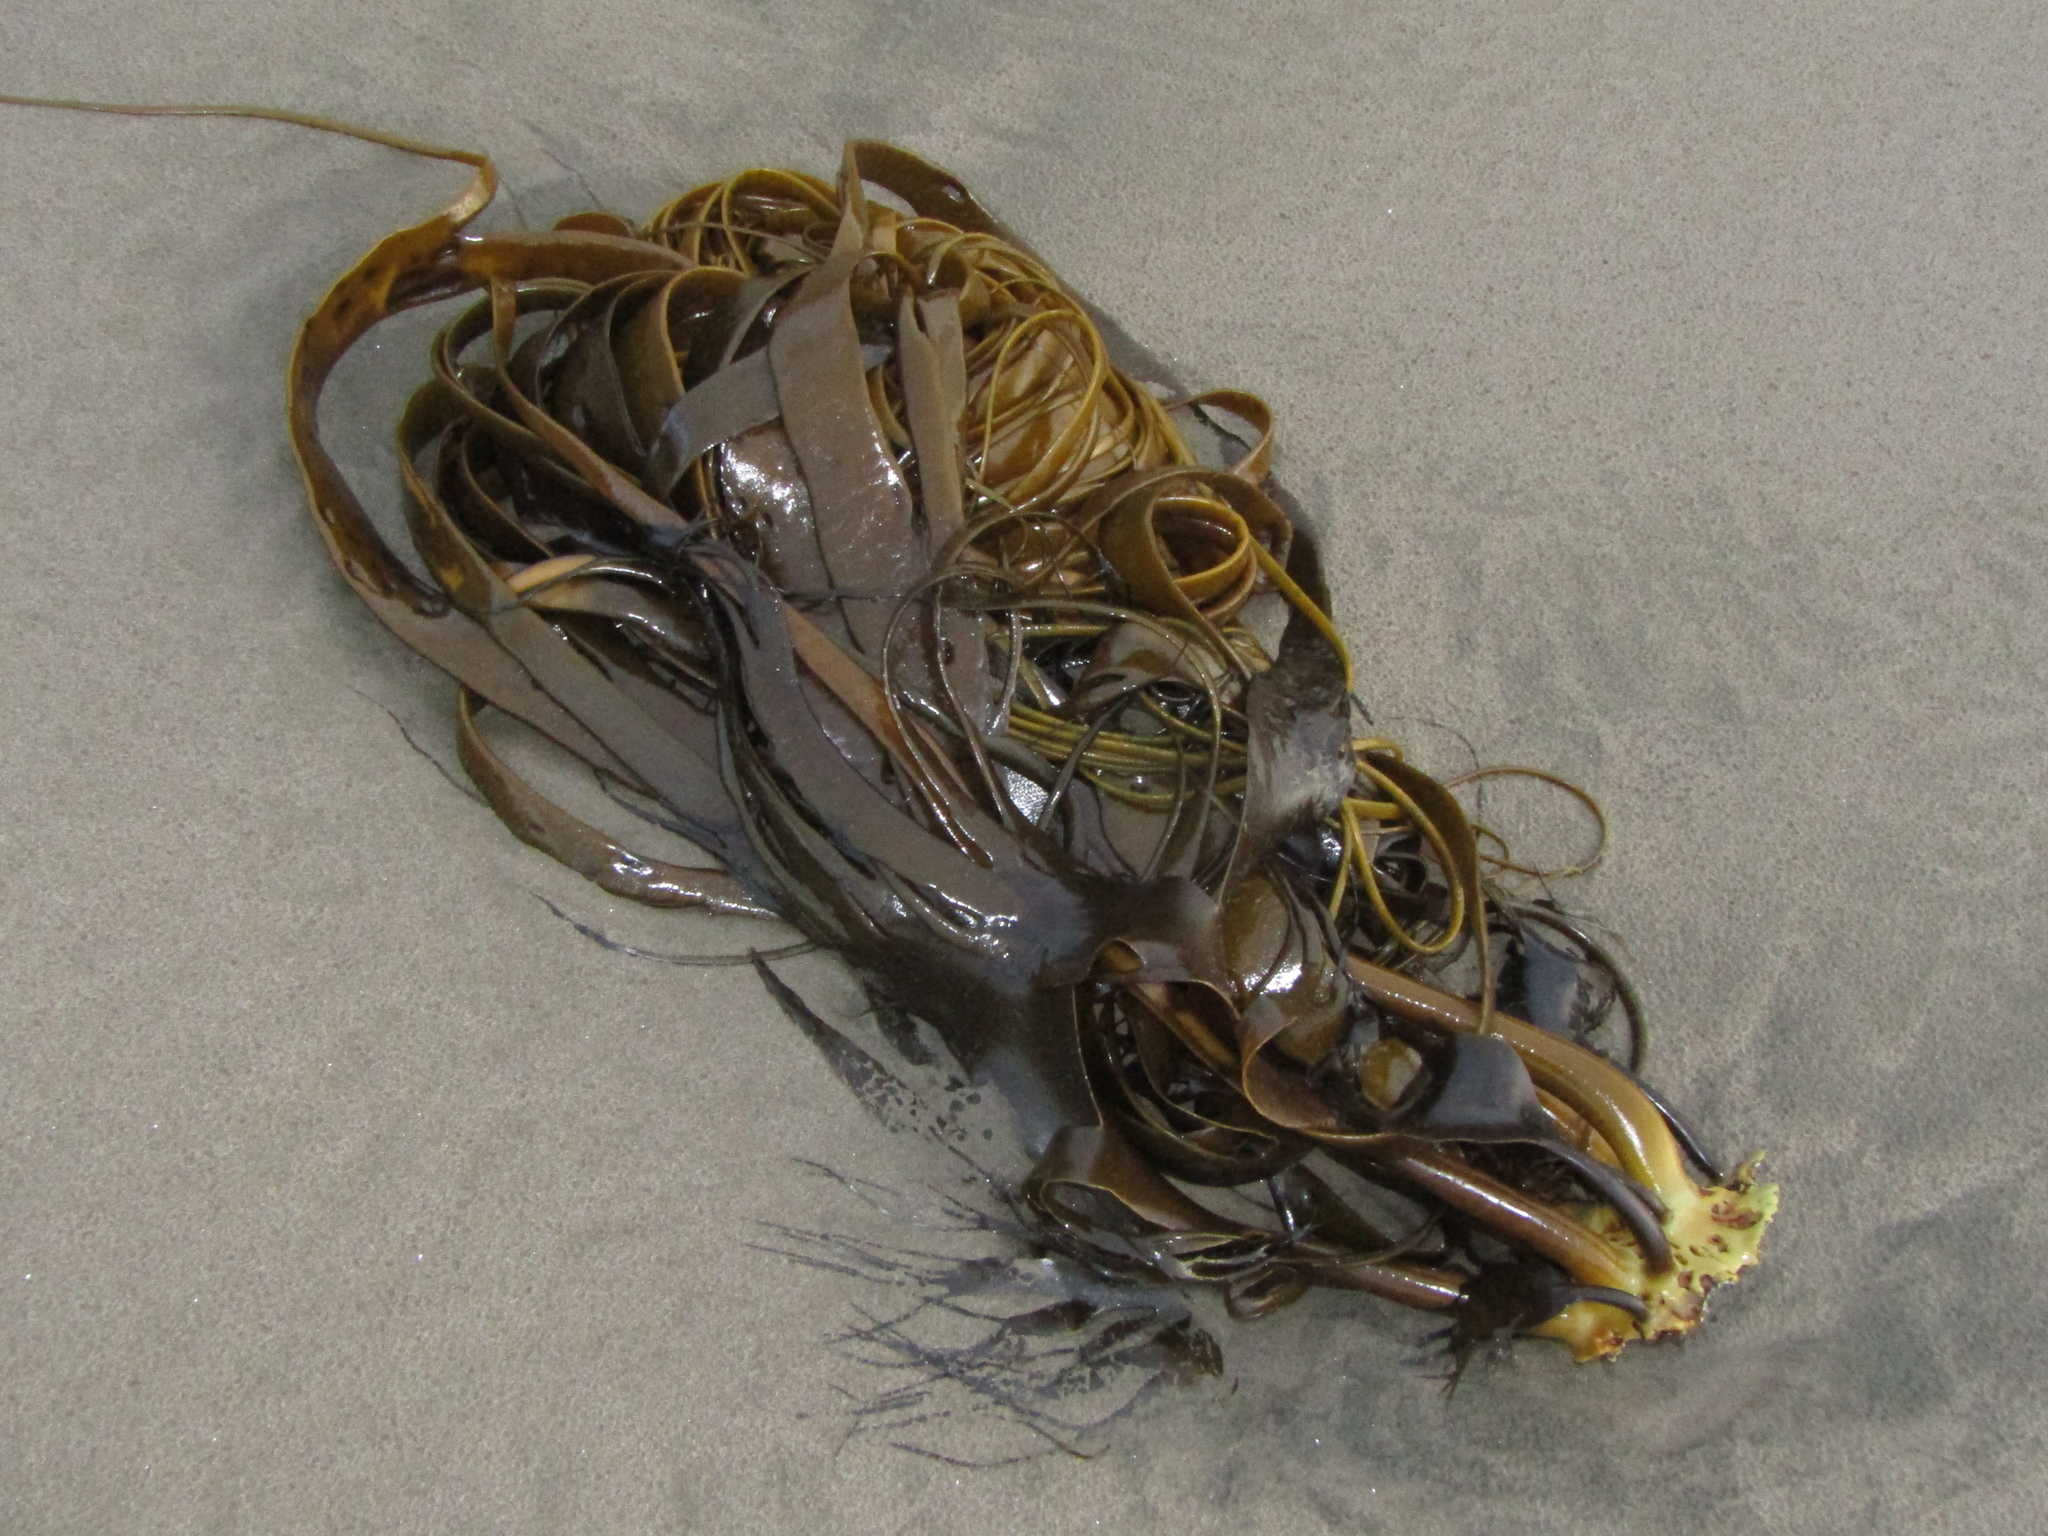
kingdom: Chromista
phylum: Ochrophyta
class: Phaeophyceae
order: Fucales
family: Durvillaeaceae
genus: Durvillaea
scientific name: Durvillaea antarctica
